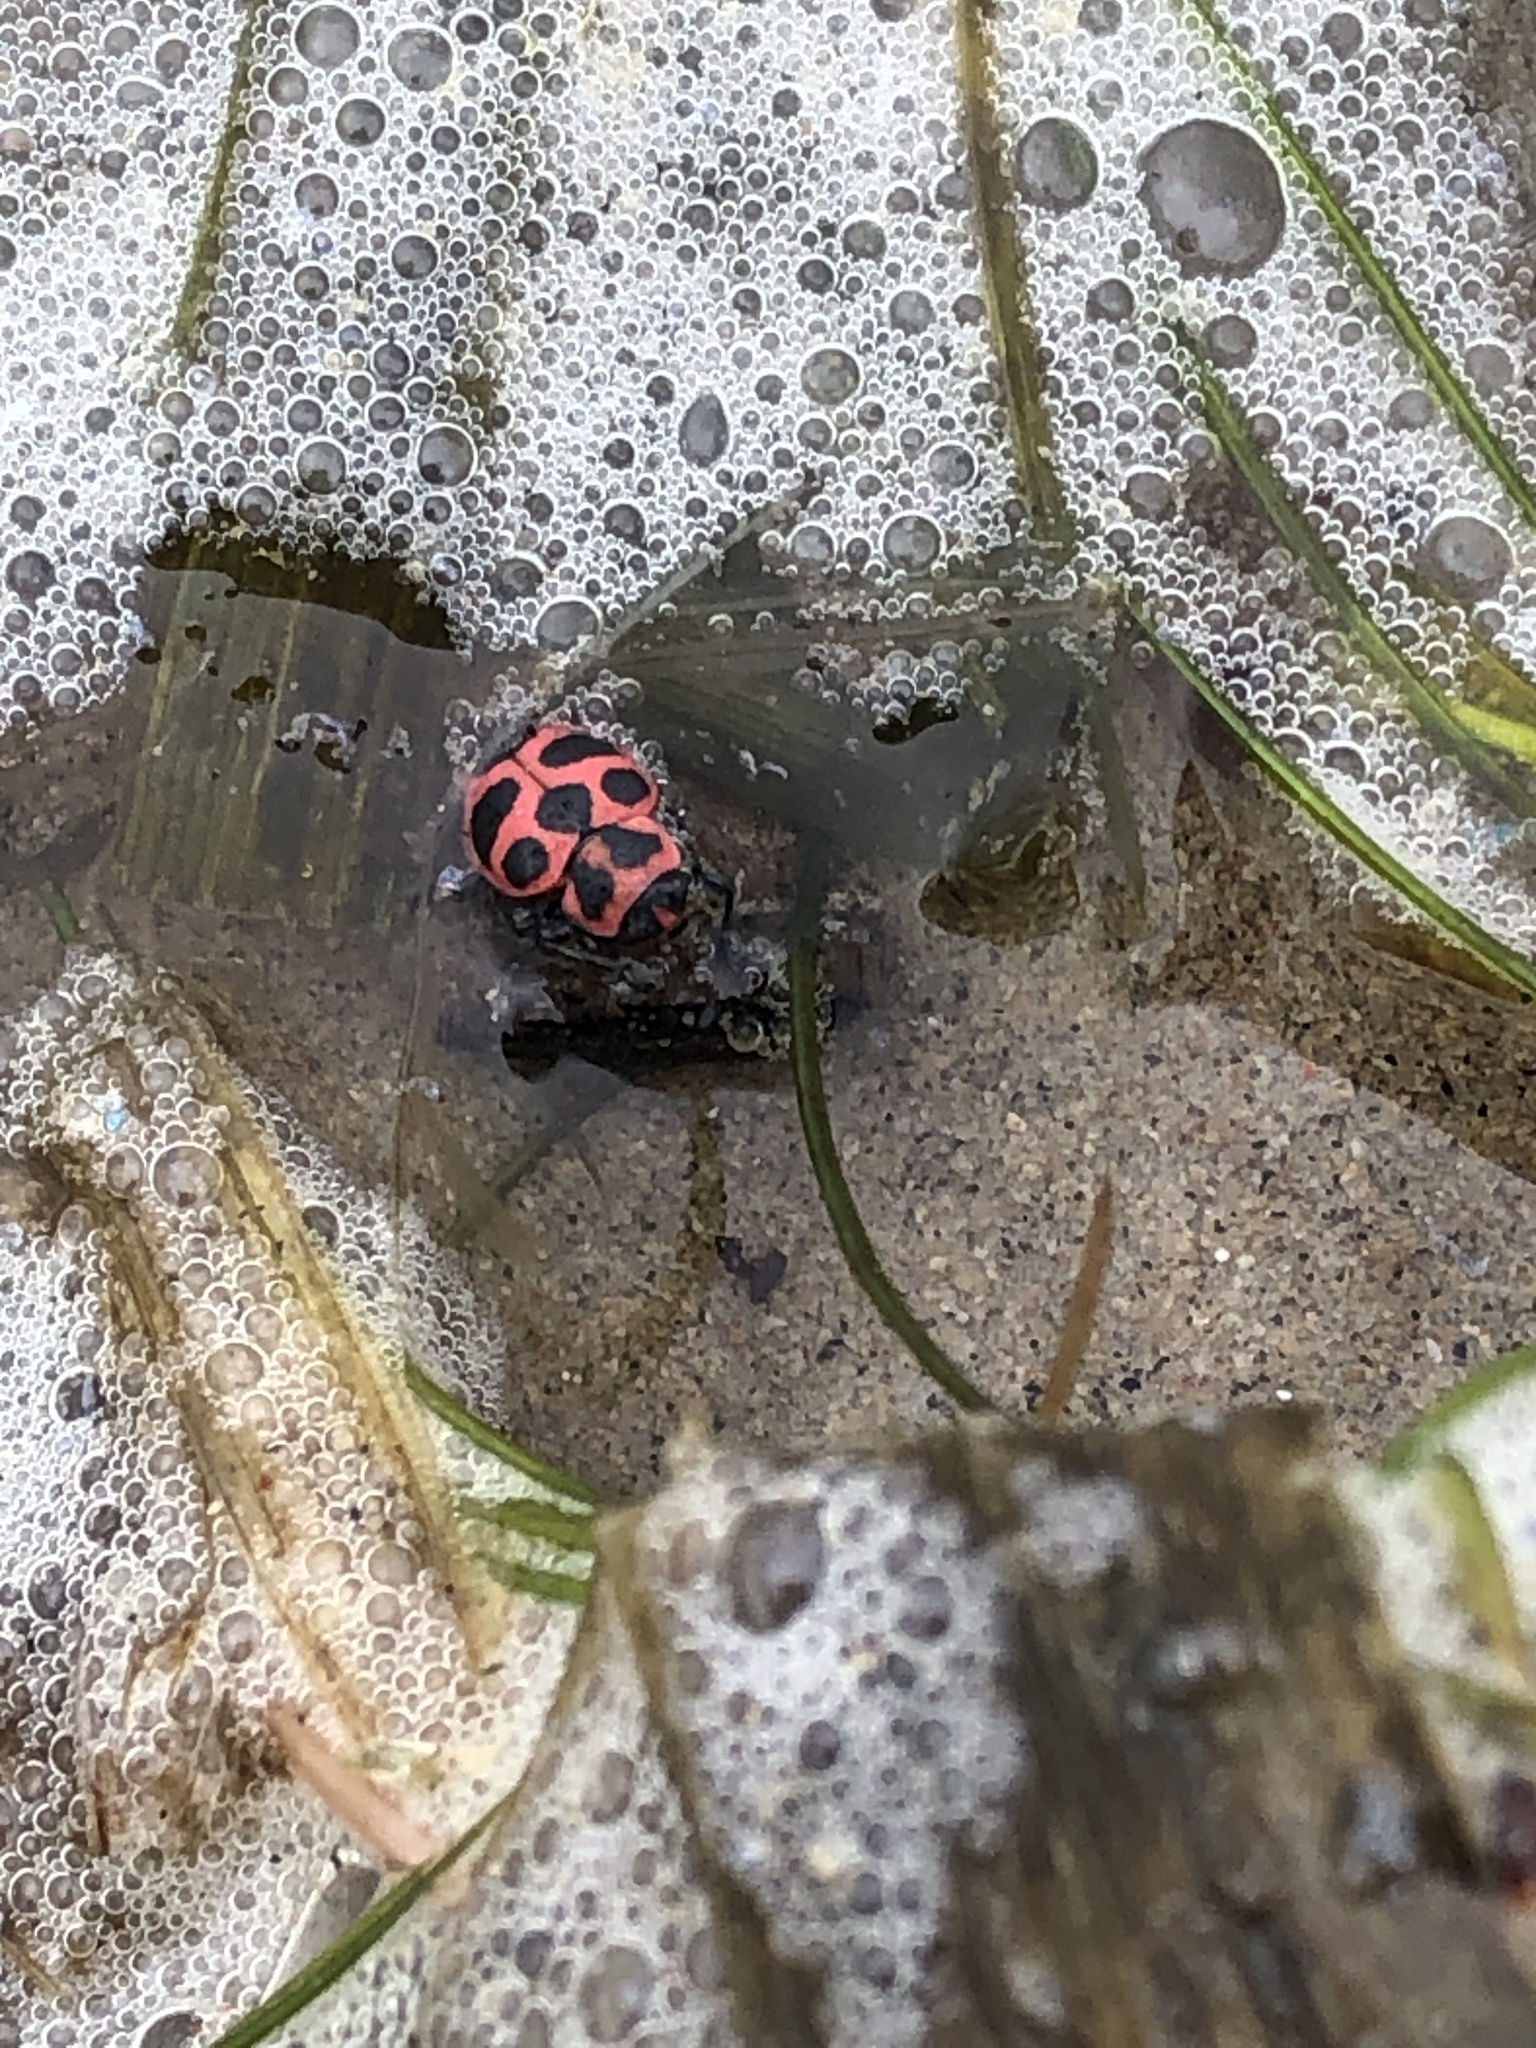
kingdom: Animalia
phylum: Arthropoda
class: Insecta
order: Coleoptera
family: Coccinellidae
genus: Coleomegilla
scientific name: Coleomegilla maculata
